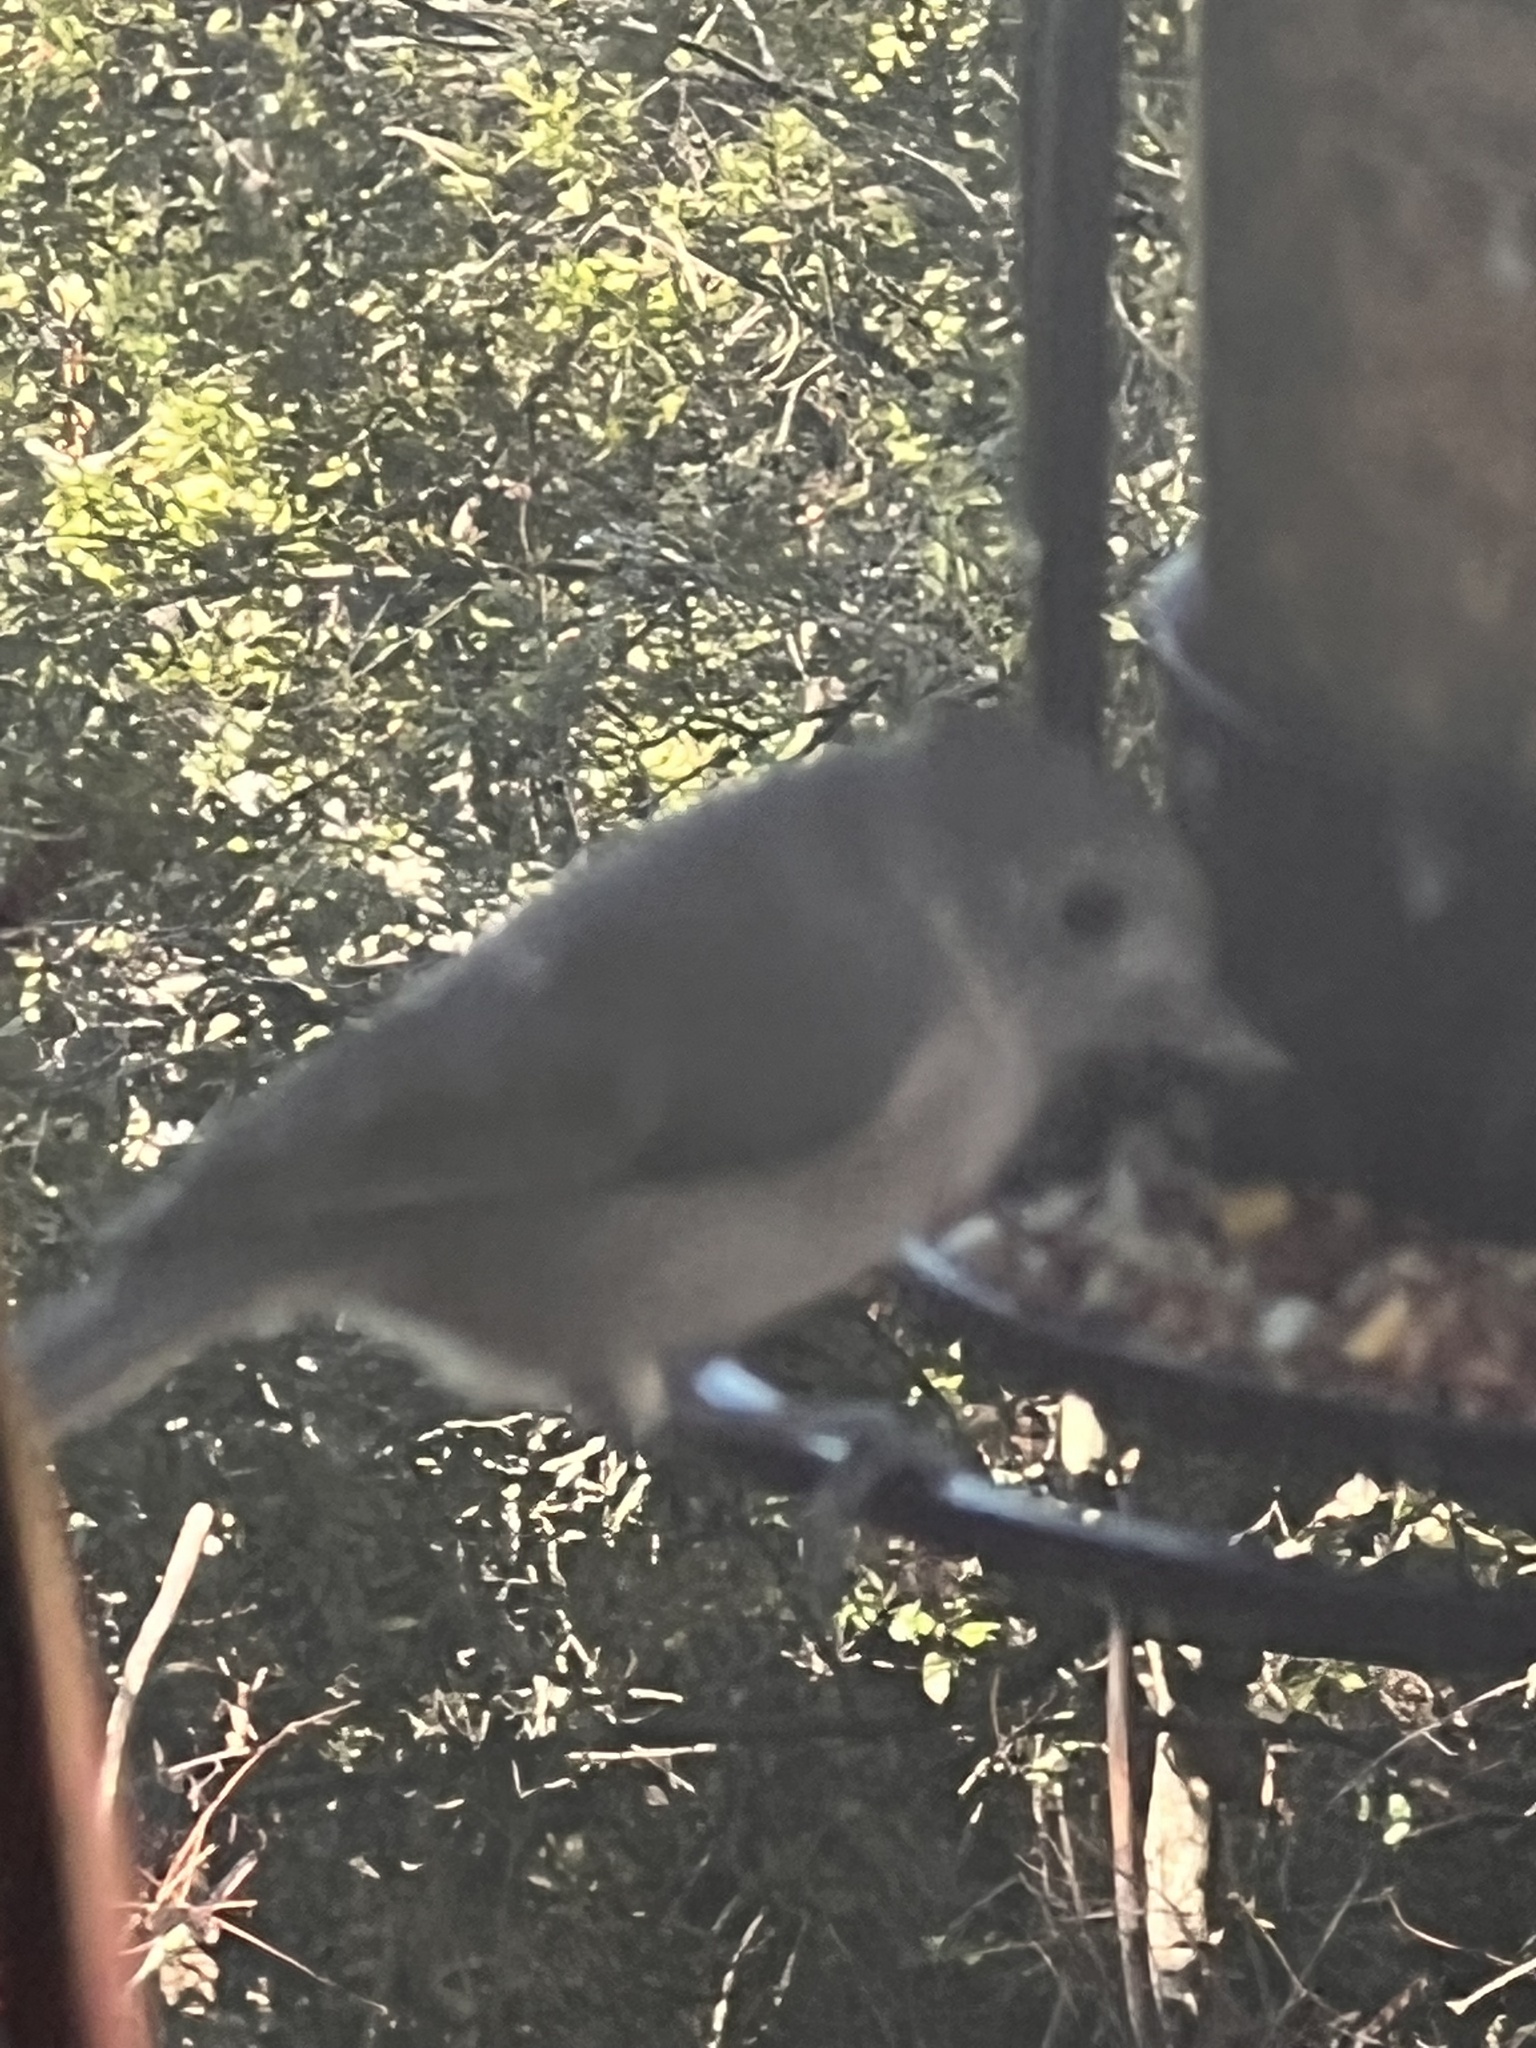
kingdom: Animalia
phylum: Chordata
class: Aves
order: Passeriformes
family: Paridae
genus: Baeolophus
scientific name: Baeolophus inornatus
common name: Oak titmouse
